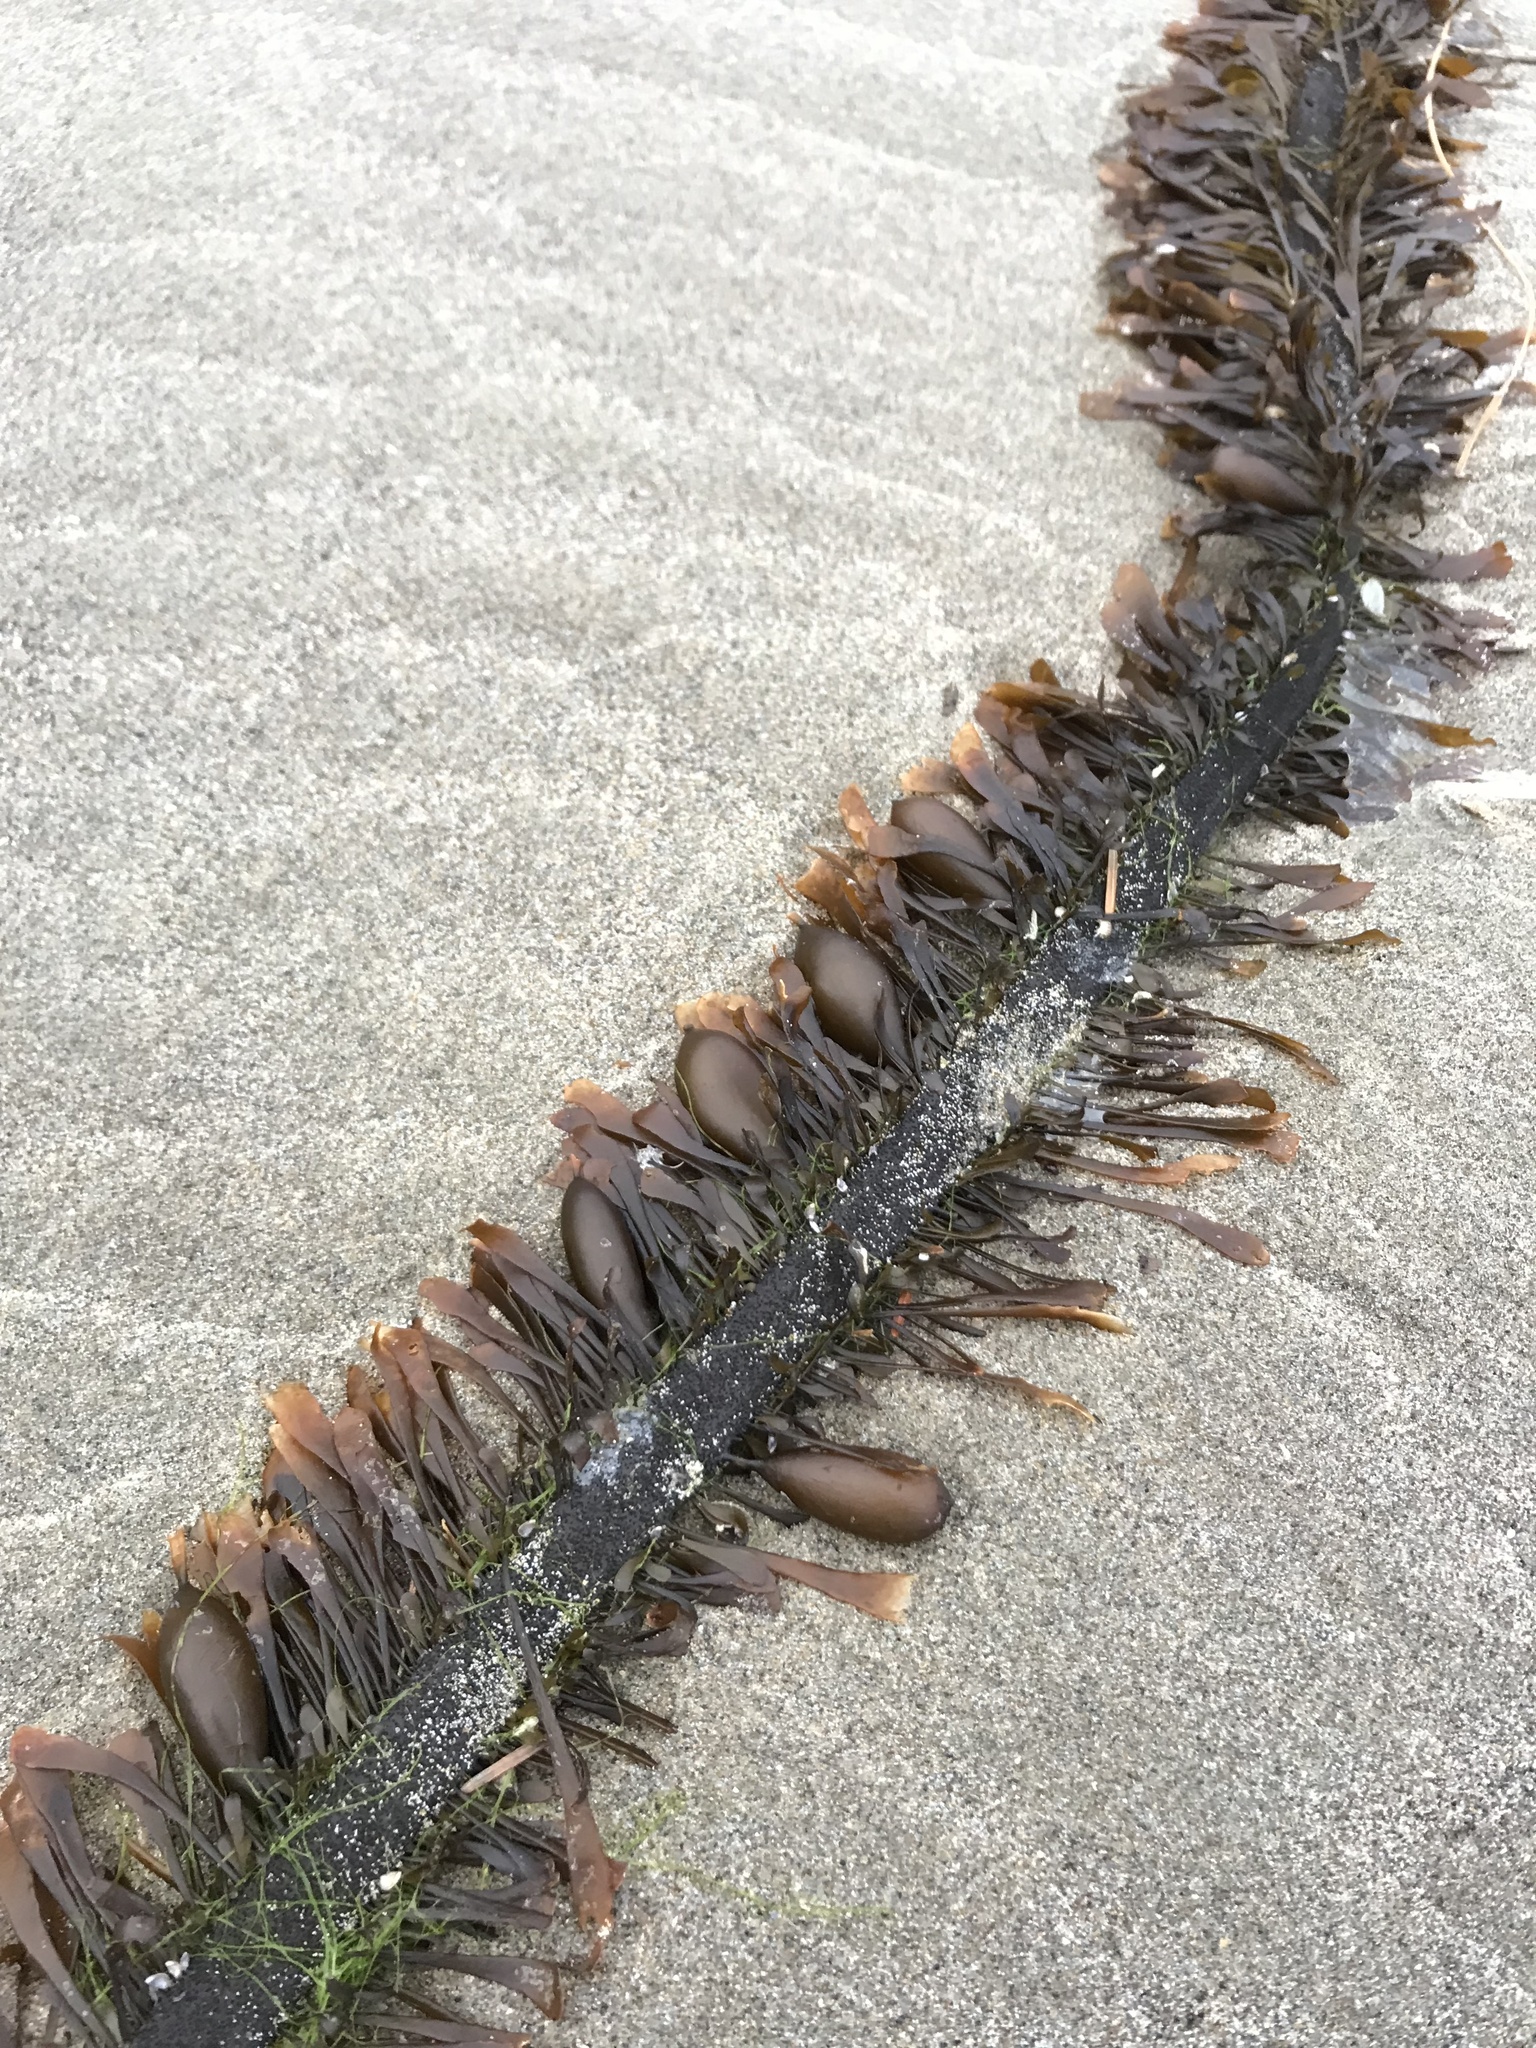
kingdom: Chromista
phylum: Ochrophyta
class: Phaeophyceae
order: Laminariales
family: Lessoniaceae
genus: Egregia
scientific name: Egregia menziesii
